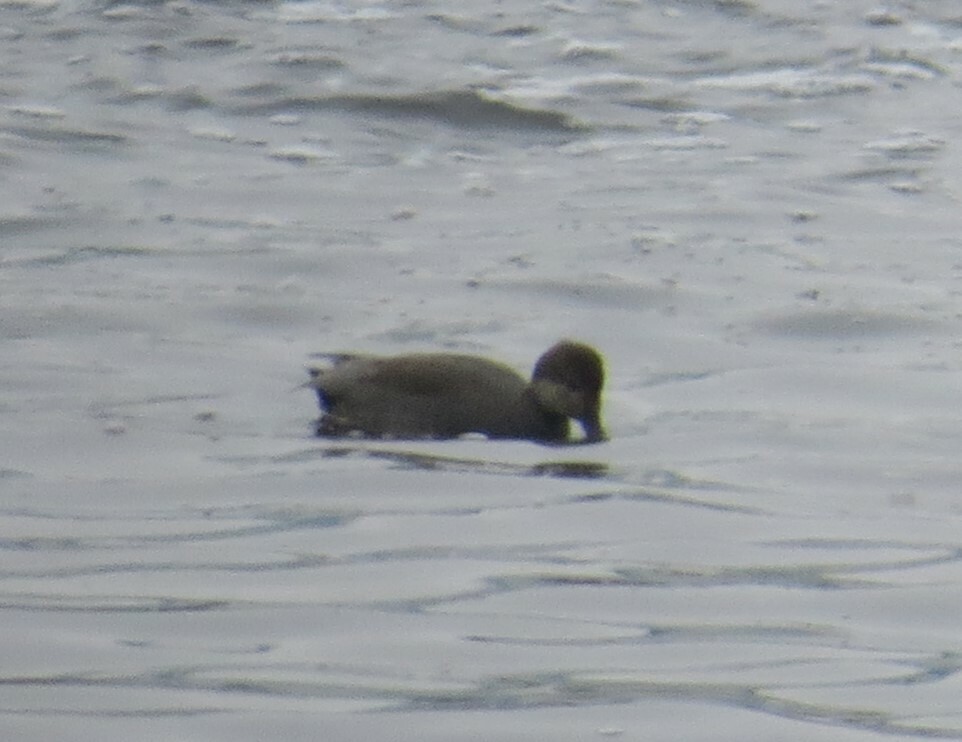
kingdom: Animalia
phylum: Chordata
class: Aves
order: Anseriformes
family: Anatidae
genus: Mareca
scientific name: Mareca strepera
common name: Gadwall
